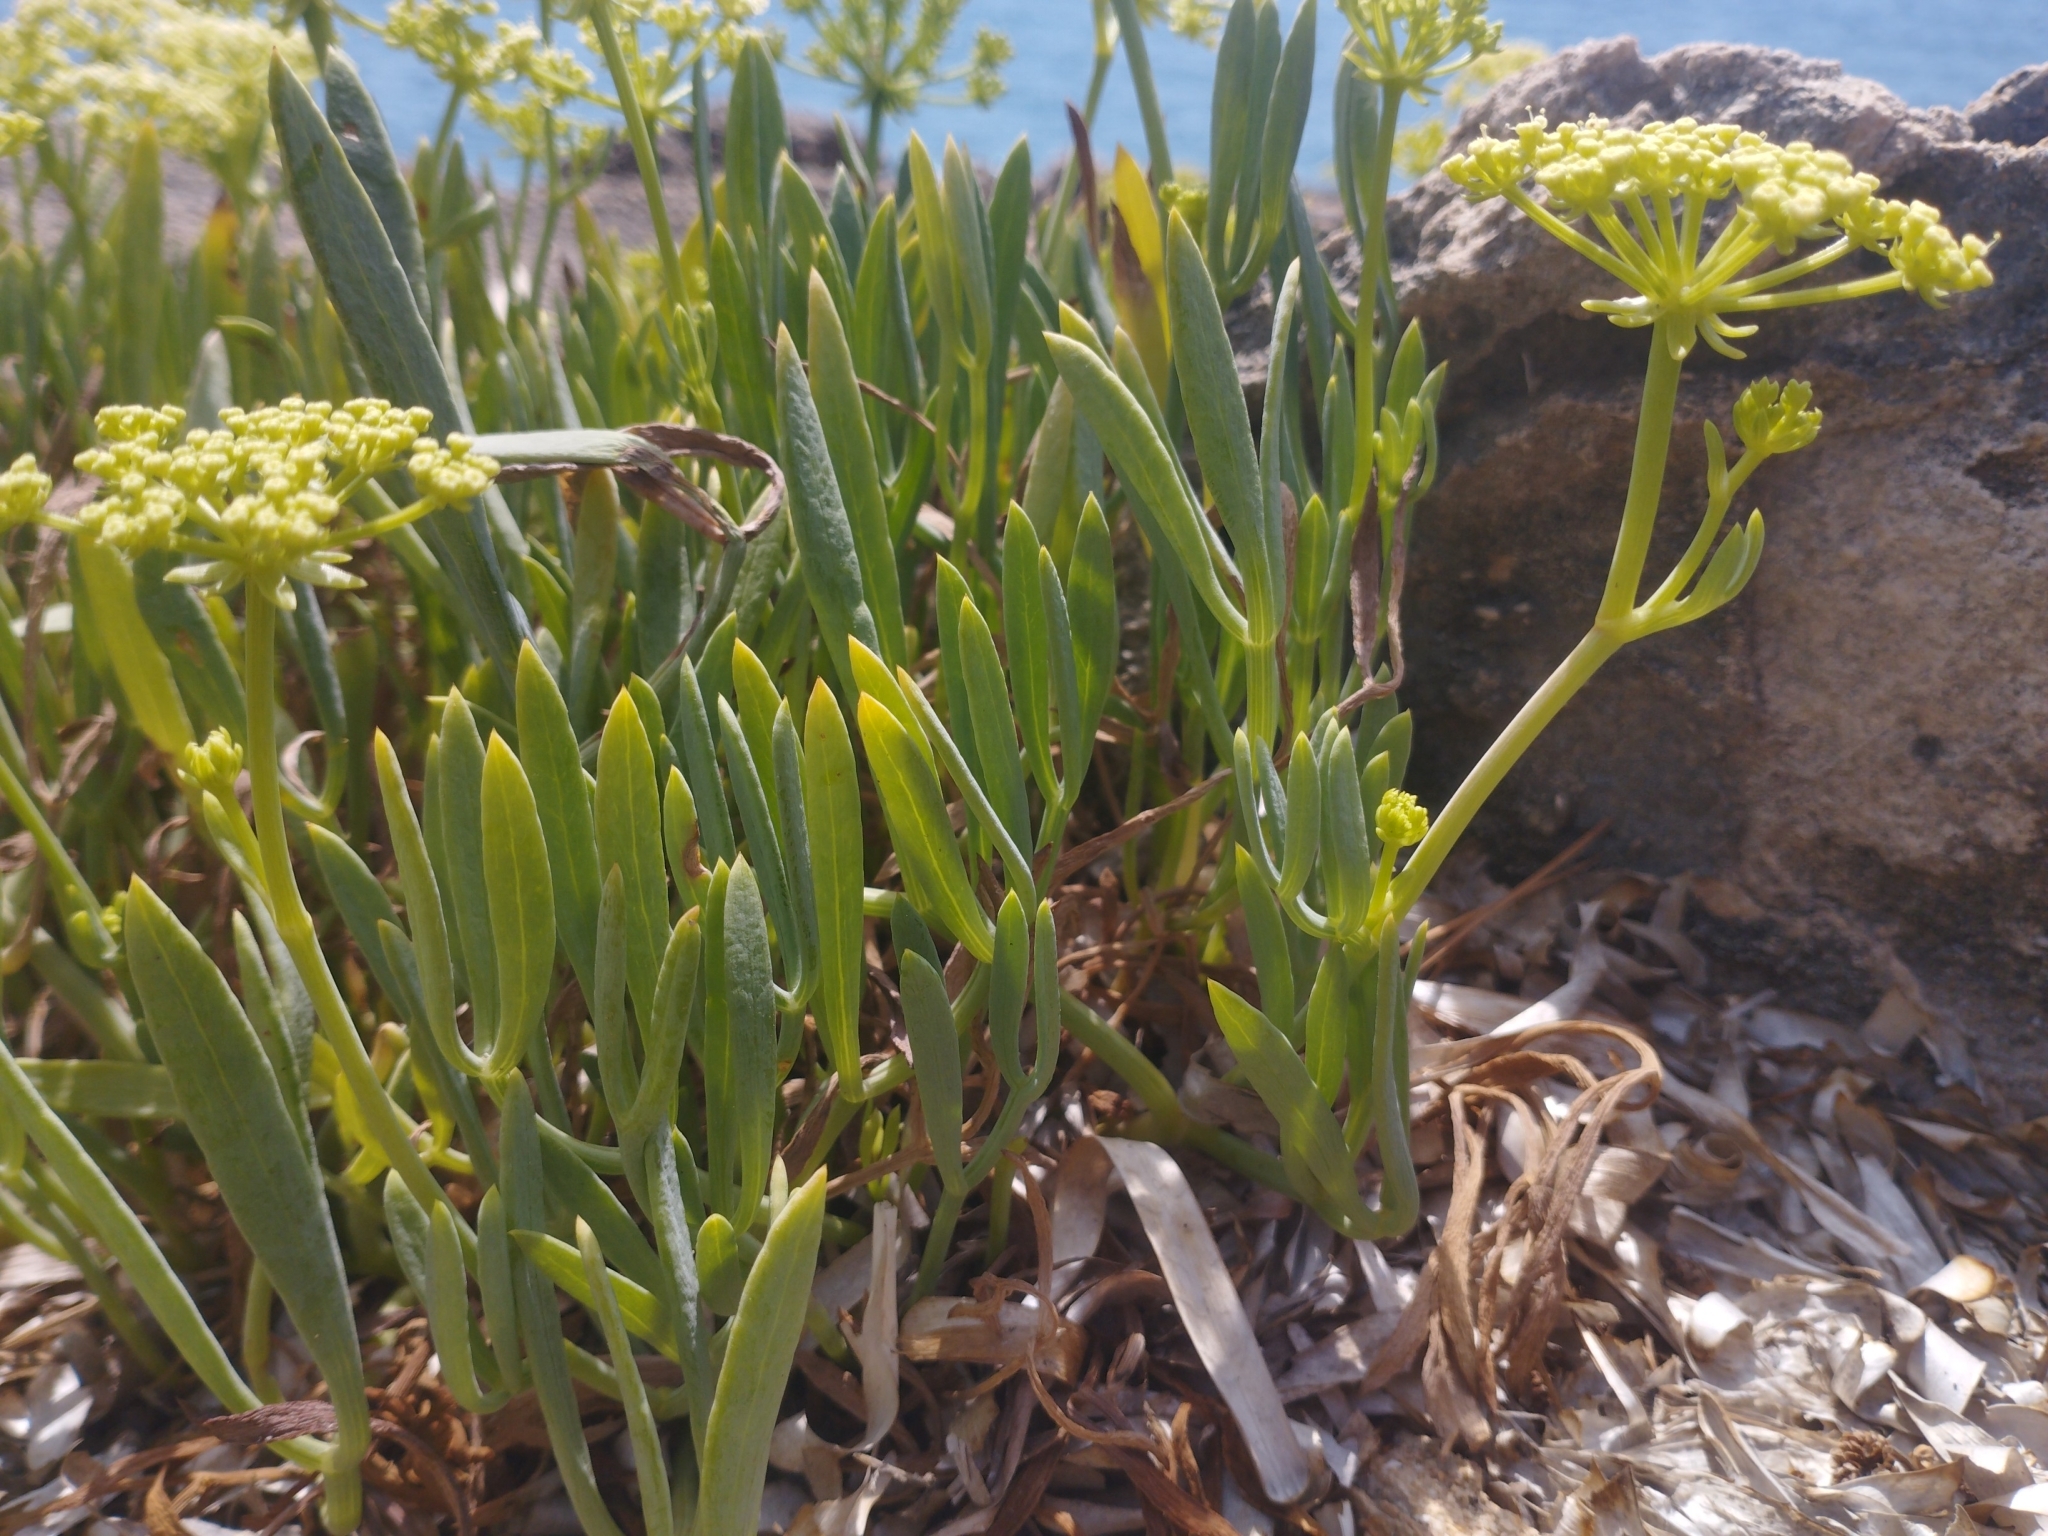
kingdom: Plantae
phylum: Tracheophyta
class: Magnoliopsida
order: Apiales
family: Apiaceae
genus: Crithmum
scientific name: Crithmum maritimum
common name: Rock samphire
